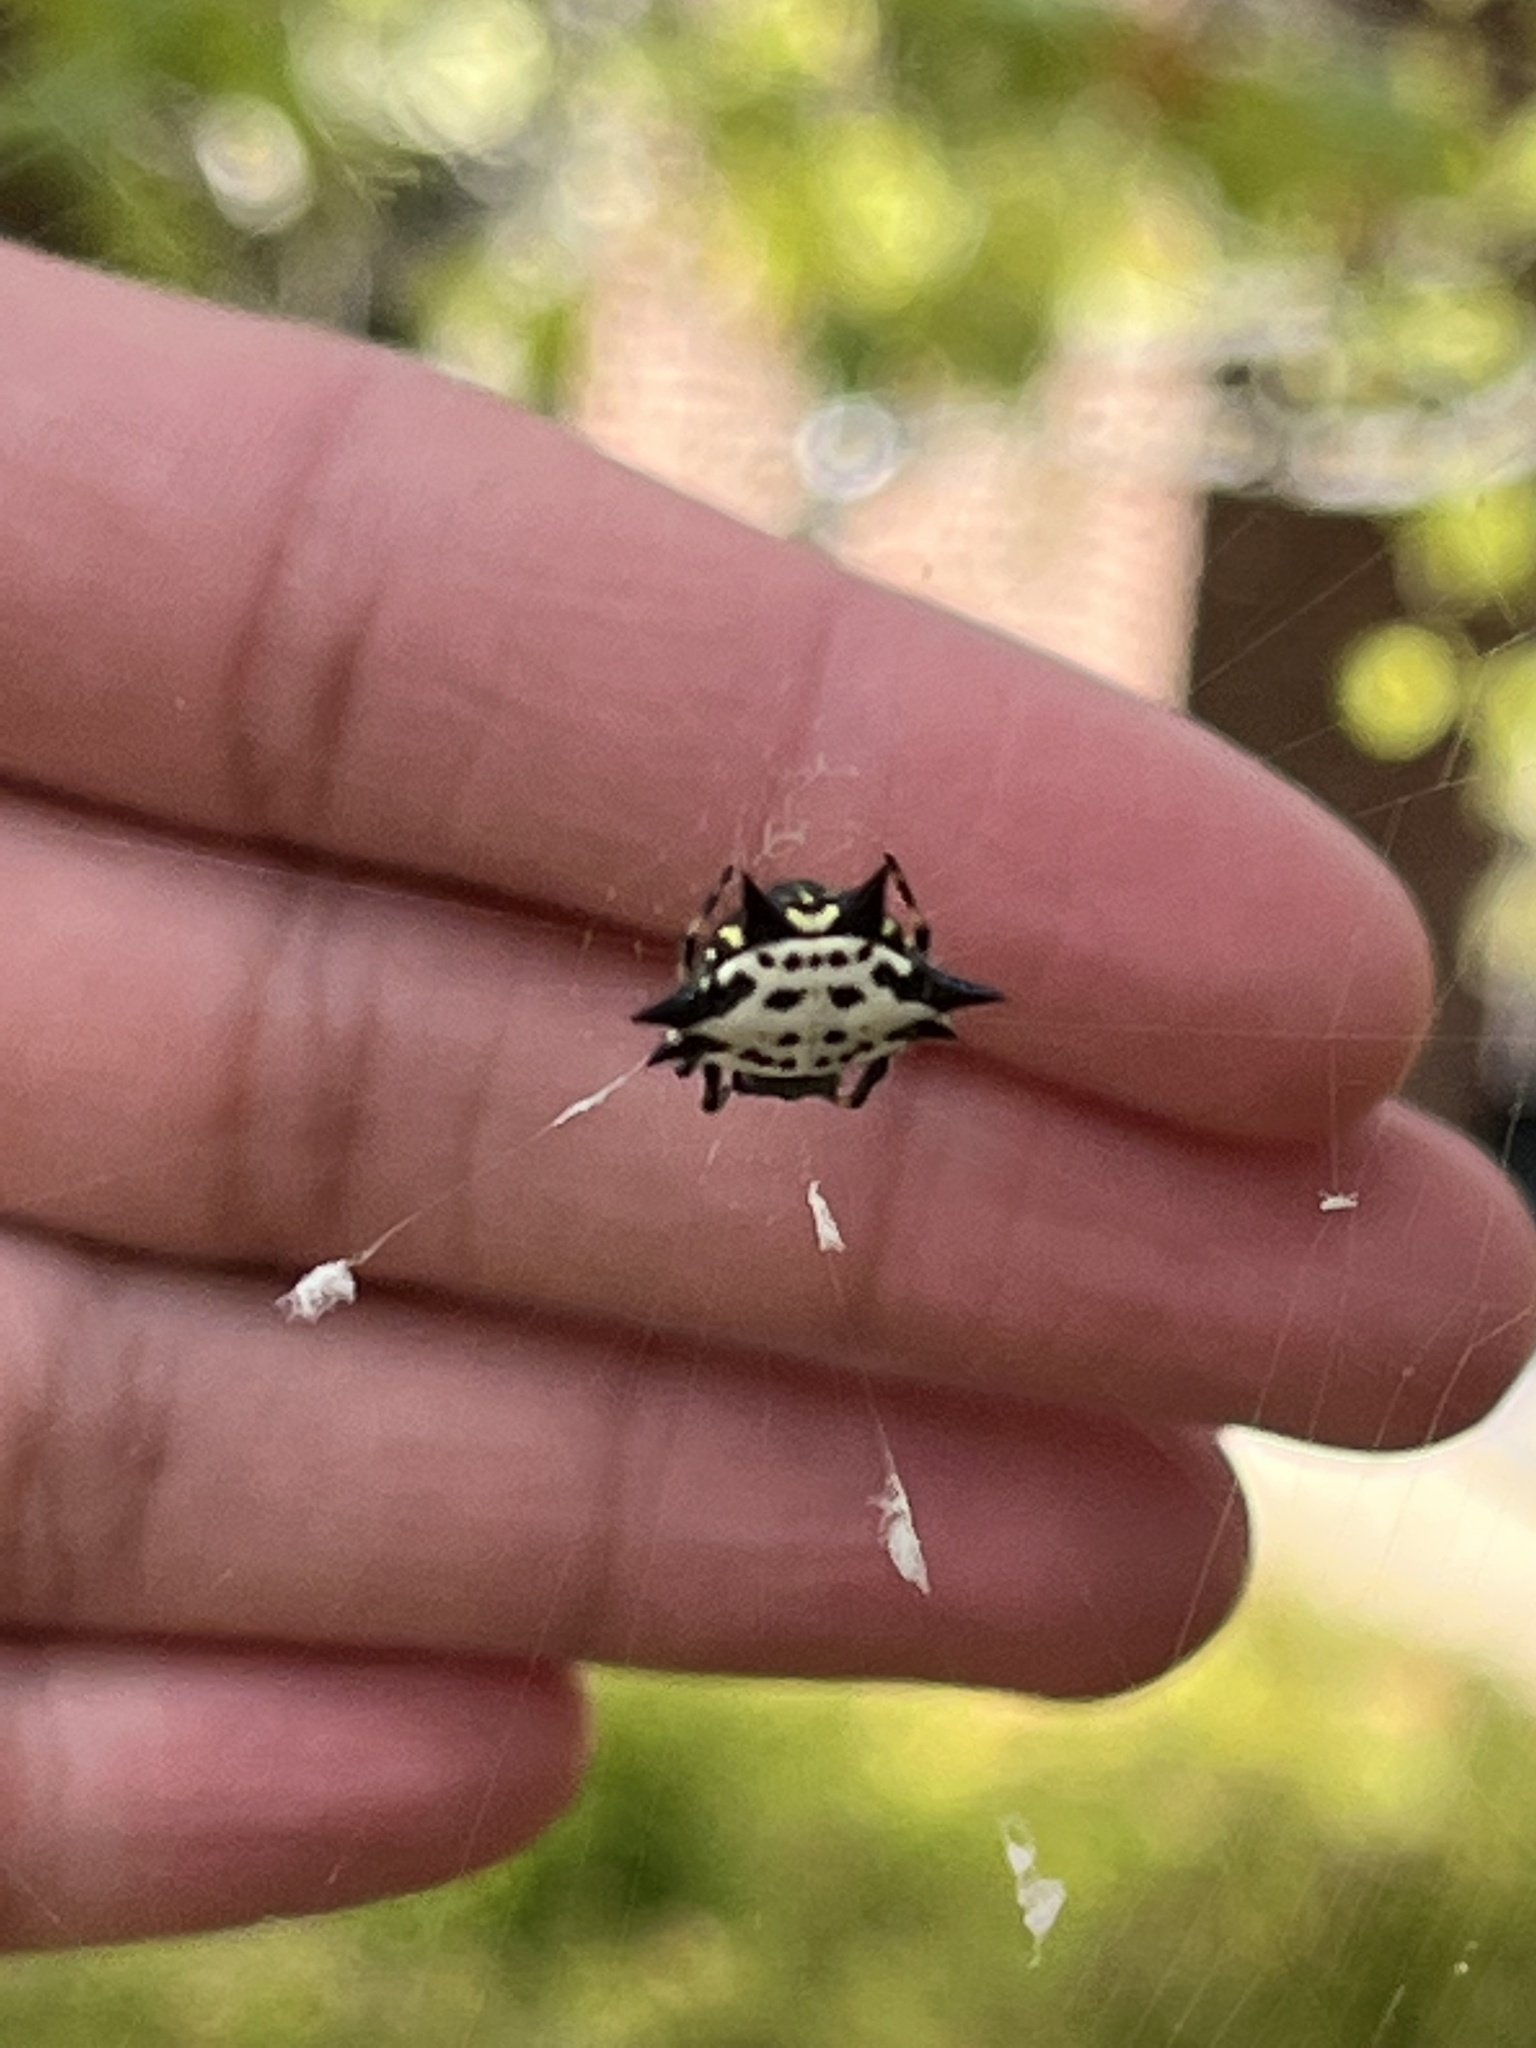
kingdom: Animalia
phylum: Arthropoda
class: Arachnida
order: Araneae
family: Araneidae
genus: Gasteracantha
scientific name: Gasteracantha cancriformis
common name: Orb weavers
